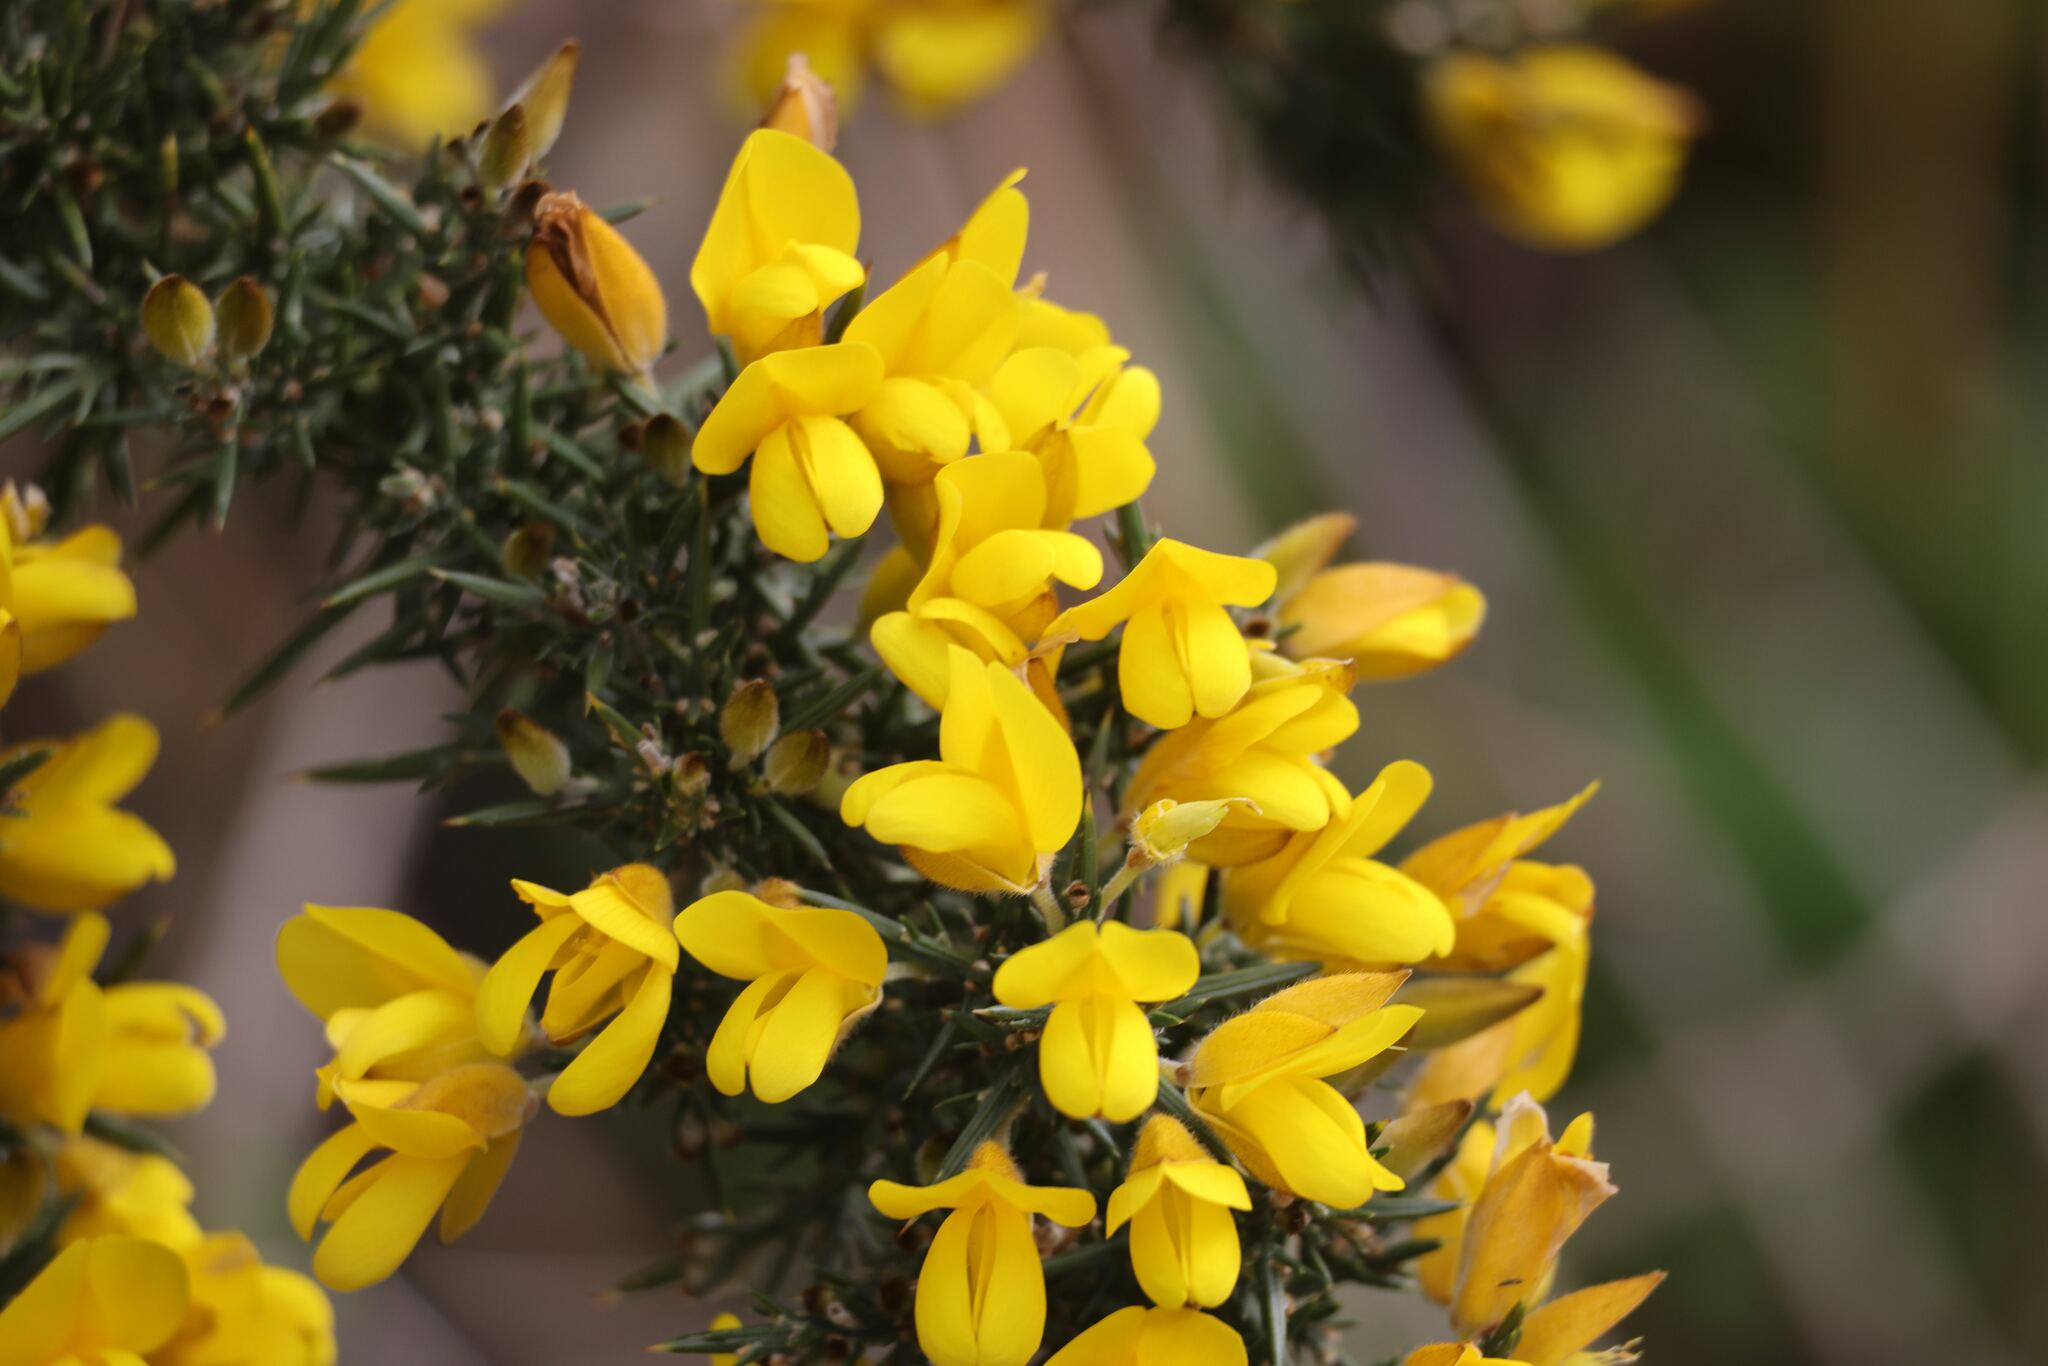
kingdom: Plantae
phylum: Tracheophyta
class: Magnoliopsida
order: Fabales
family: Fabaceae
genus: Ulex
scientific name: Ulex europaeus
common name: Common gorse
